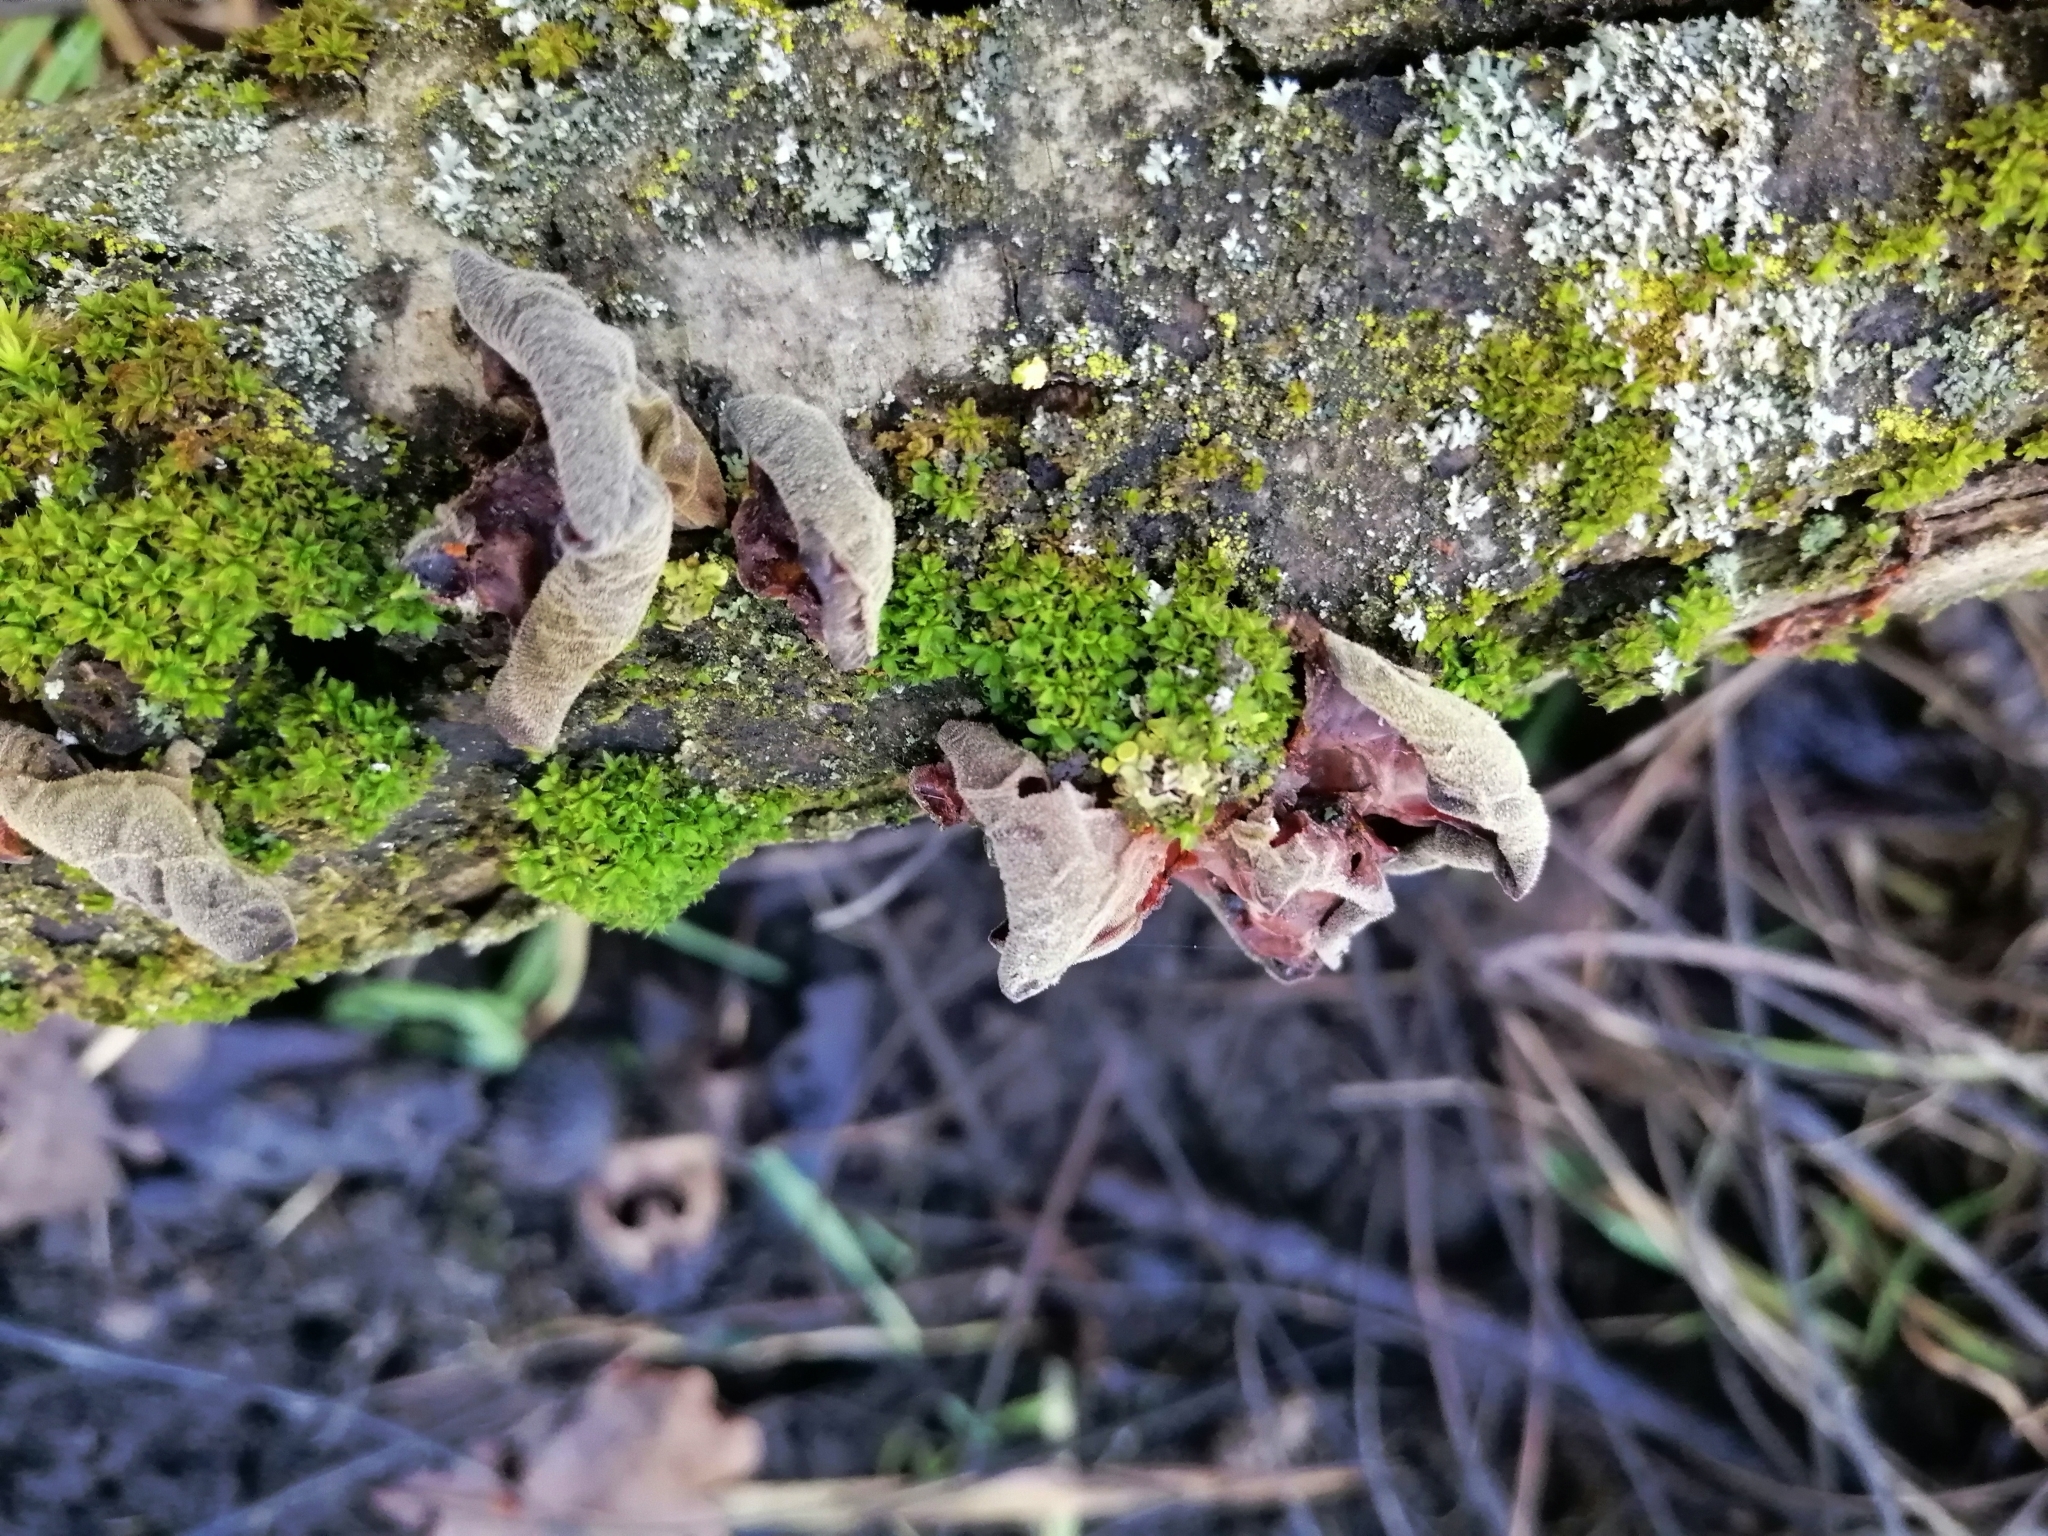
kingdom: Fungi
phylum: Basidiomycota
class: Agaricomycetes
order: Auriculariales
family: Auriculariaceae
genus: Auricularia
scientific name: Auricularia auricula-judae
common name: Jelly ear
